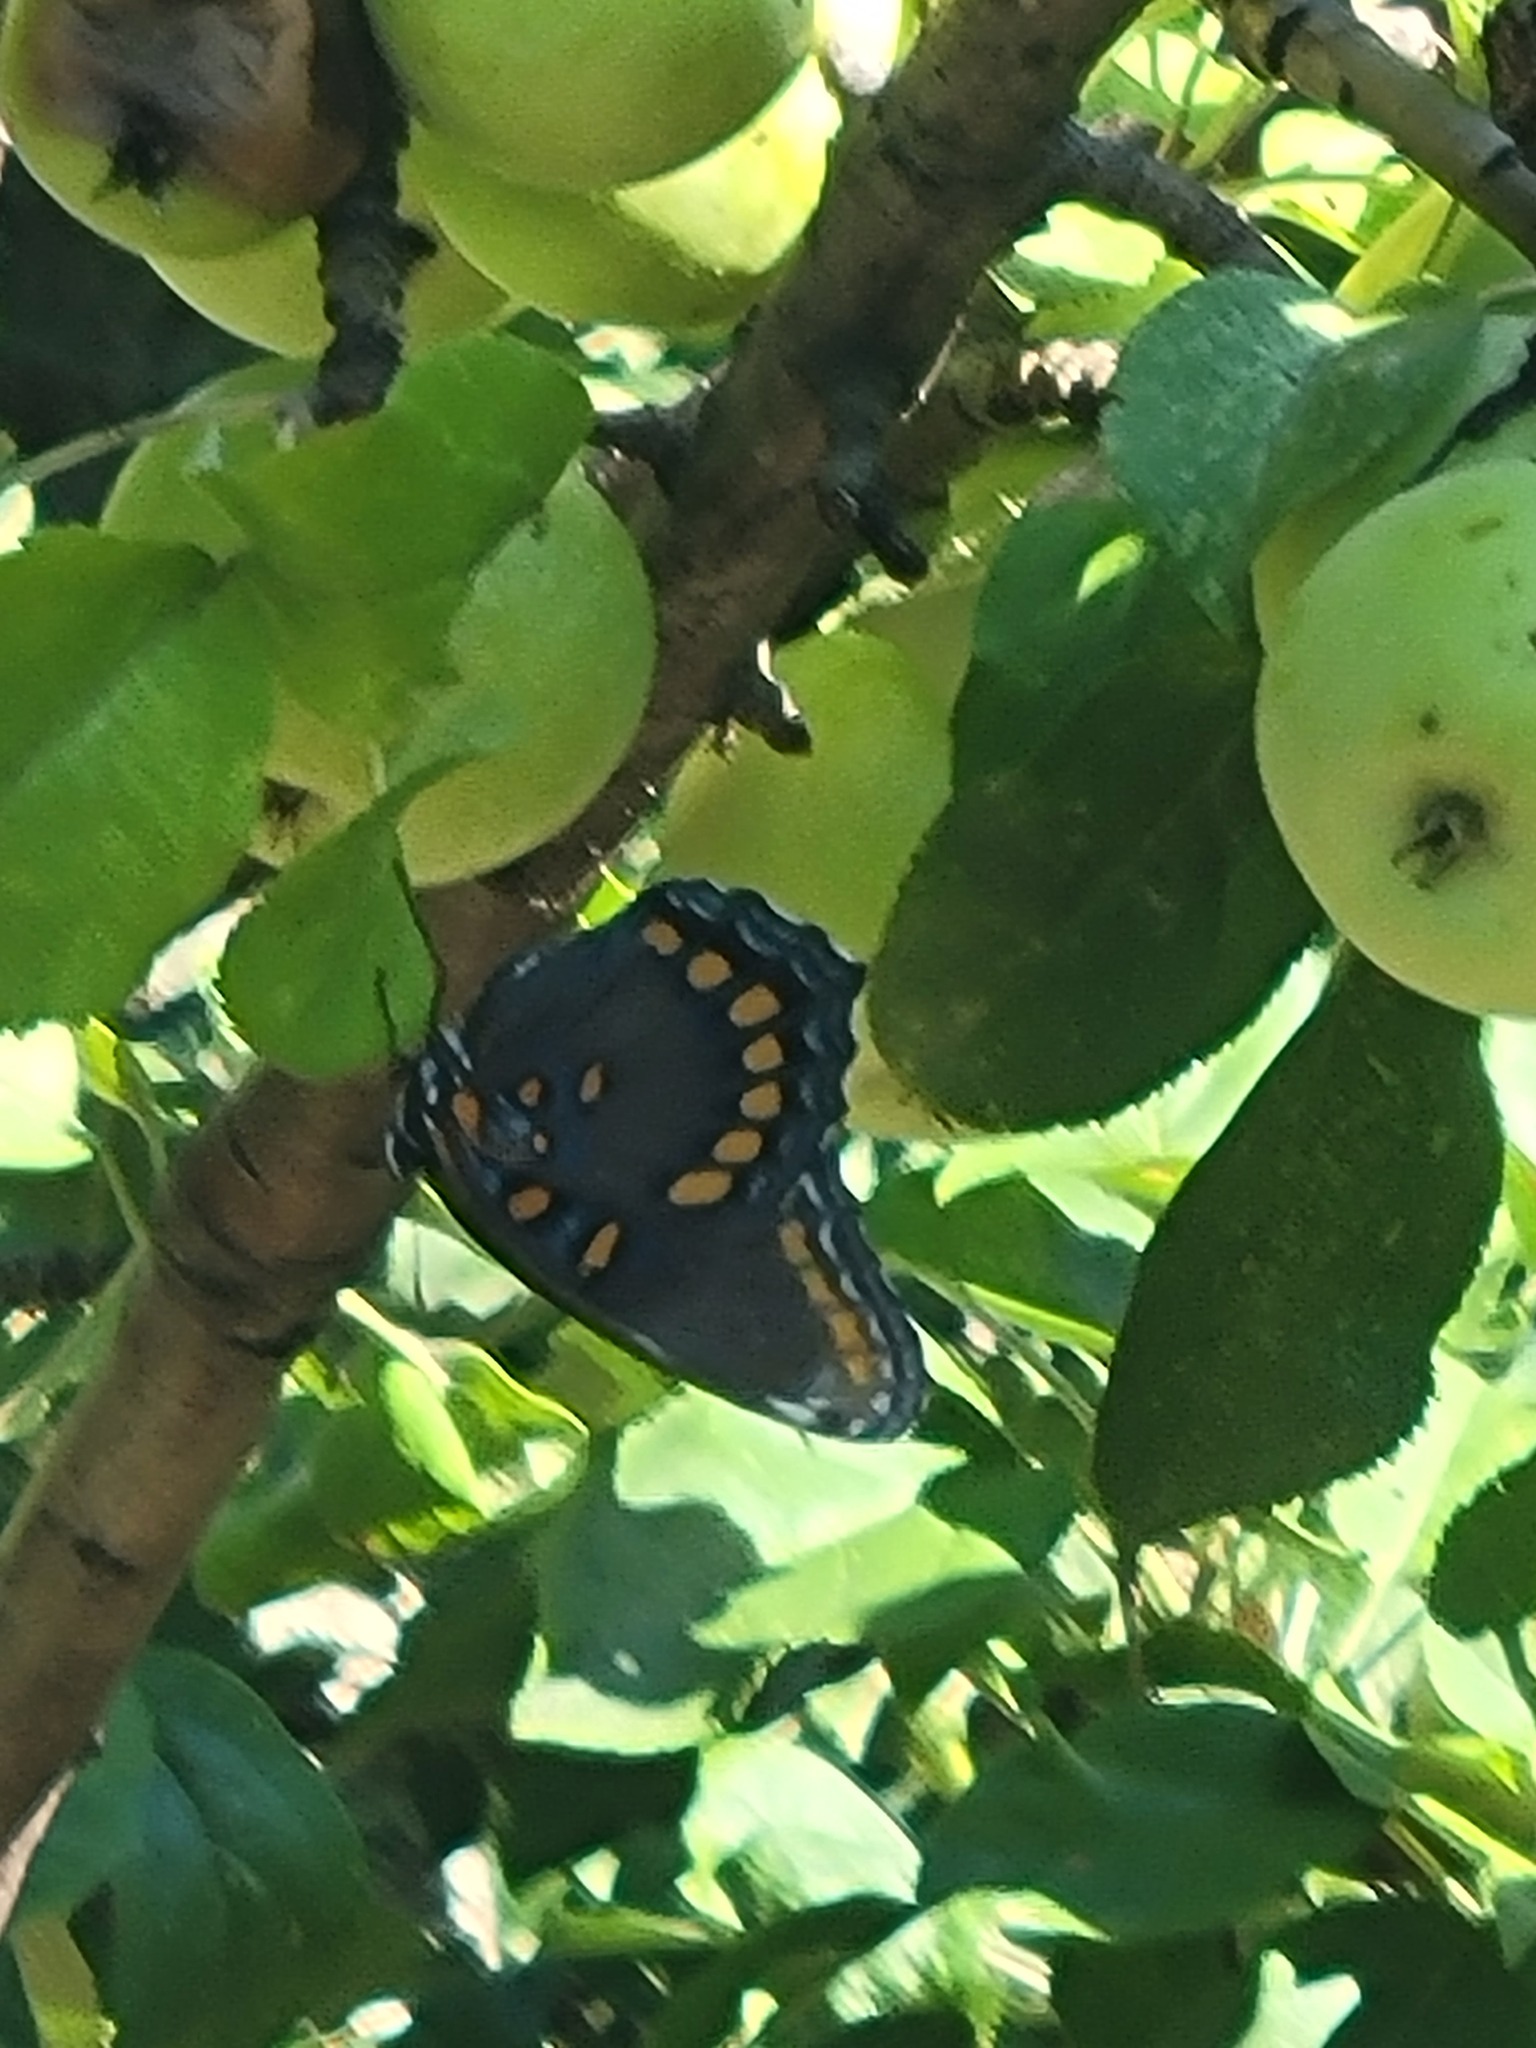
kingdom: Animalia
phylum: Arthropoda
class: Insecta
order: Lepidoptera
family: Nymphalidae
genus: Limenitis
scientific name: Limenitis astyanax
